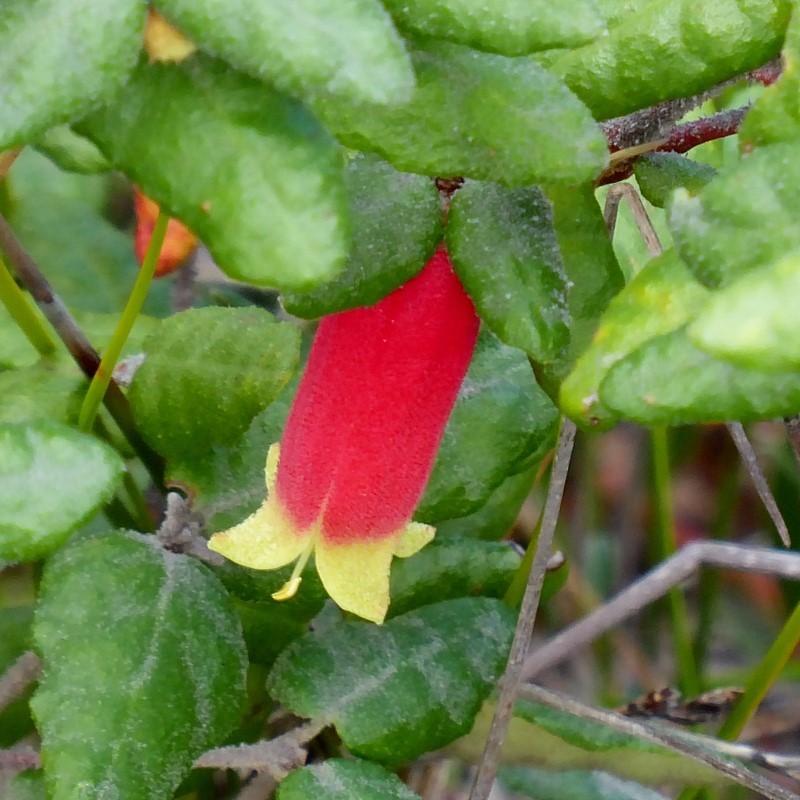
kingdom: Plantae
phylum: Tracheophyta
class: Magnoliopsida
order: Sapindales
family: Rutaceae
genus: Correa
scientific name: Correa reflexa
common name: Common correa
